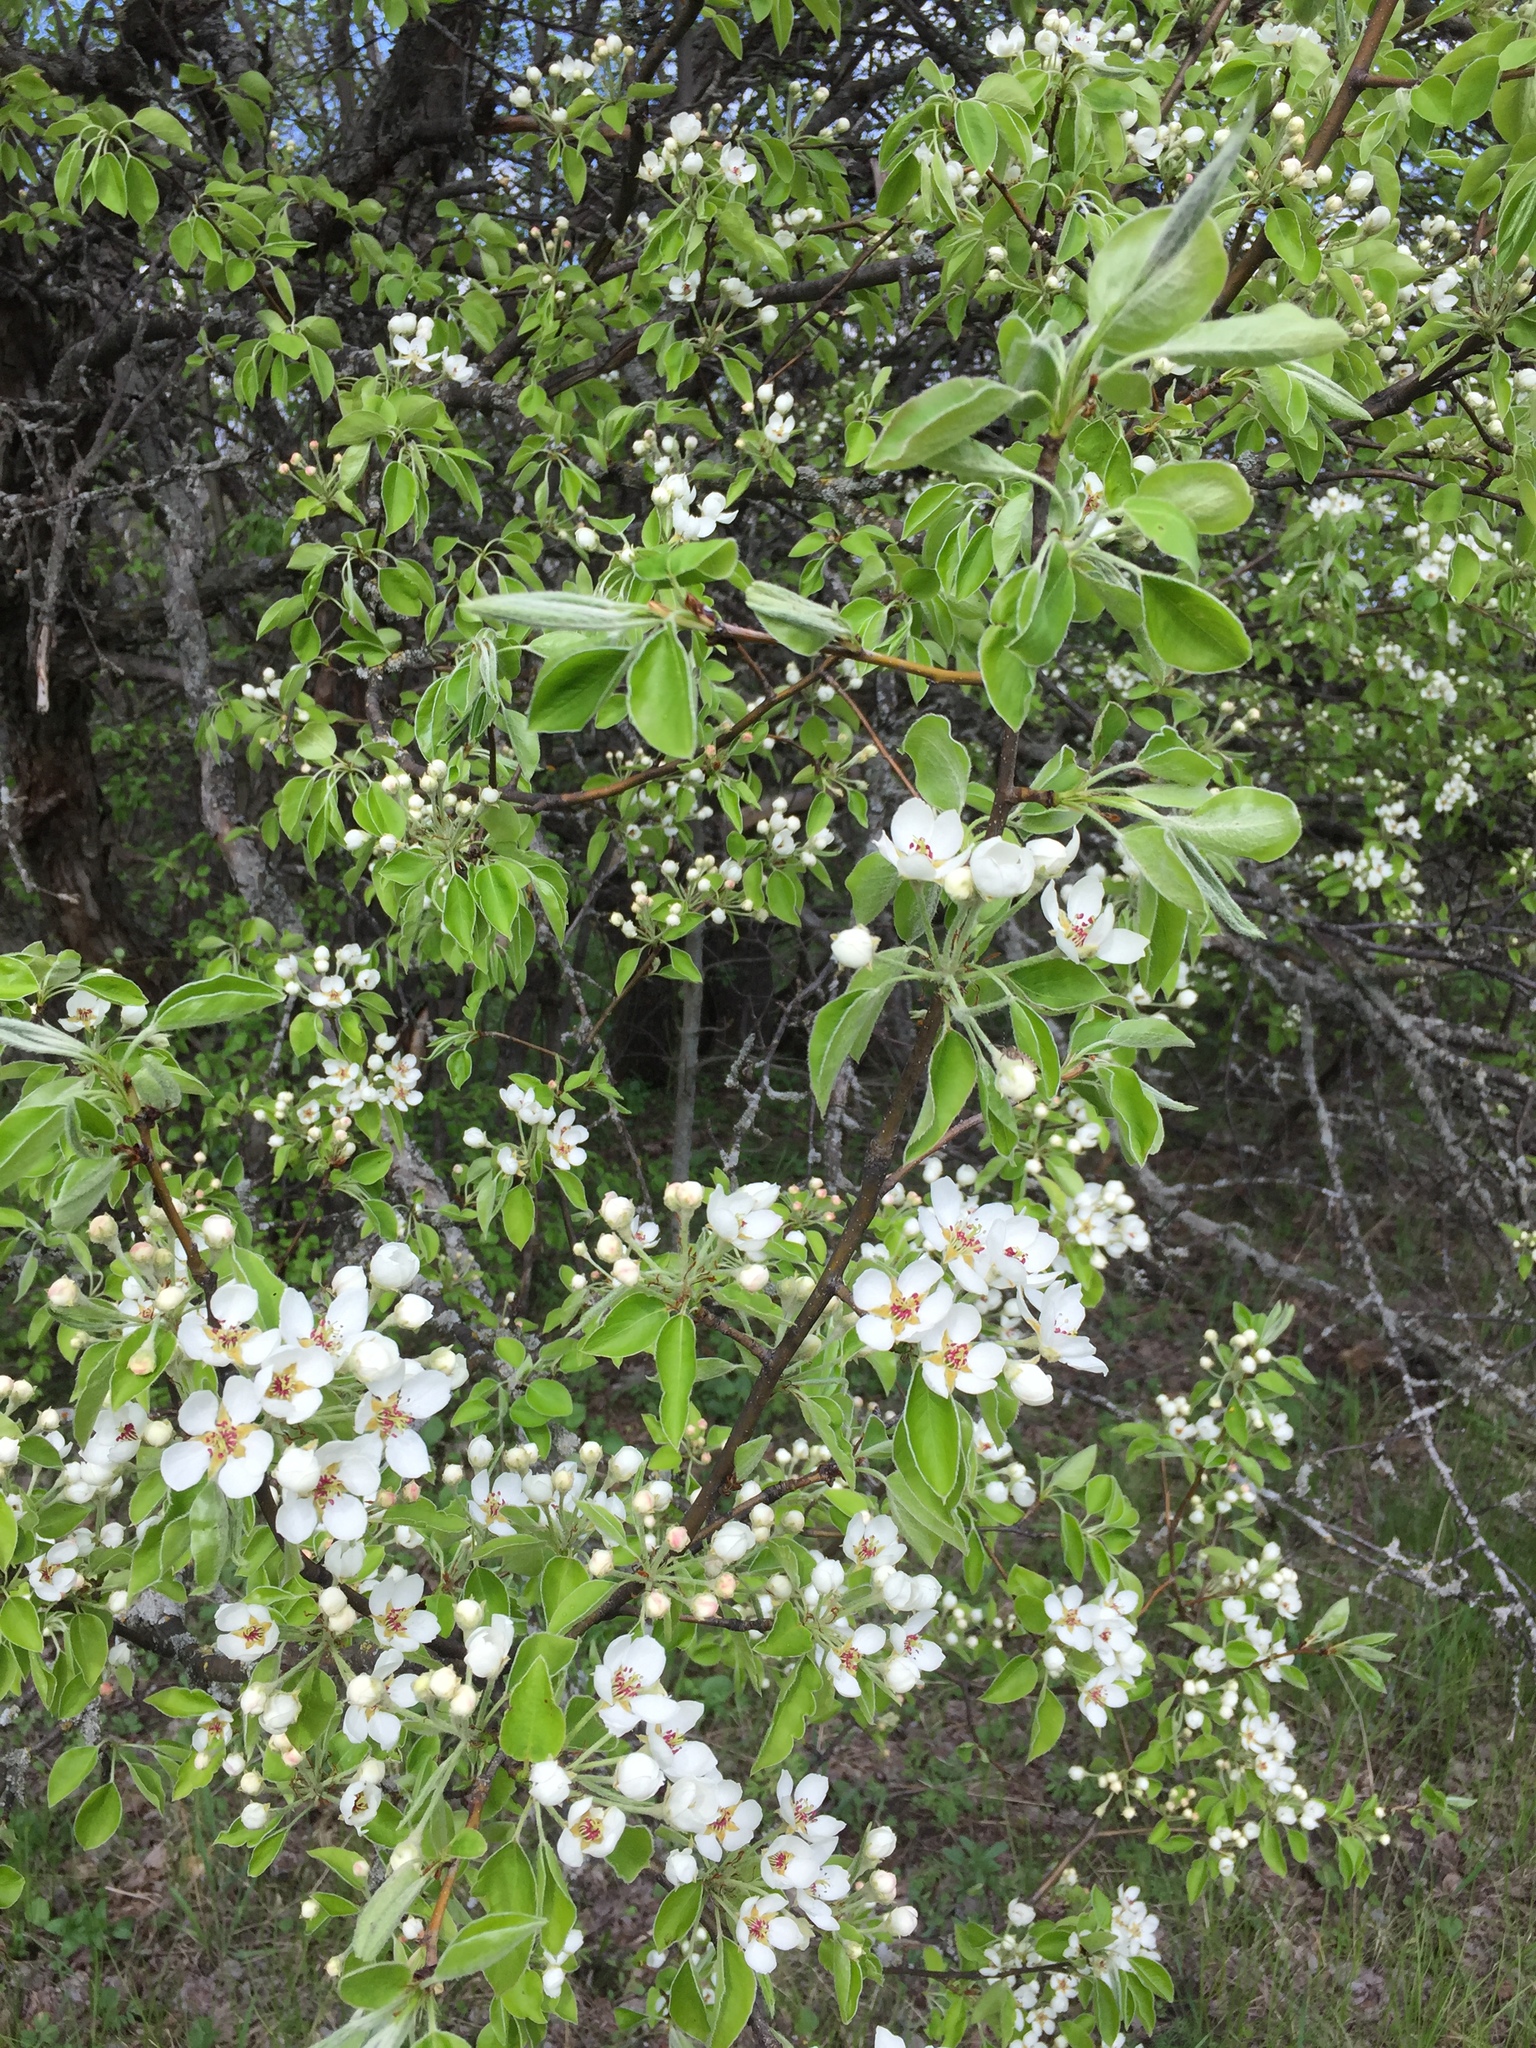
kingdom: Plantae
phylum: Tracheophyta
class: Magnoliopsida
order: Rosales
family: Rosaceae
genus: Pyrus
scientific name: Pyrus communis
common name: Pear
